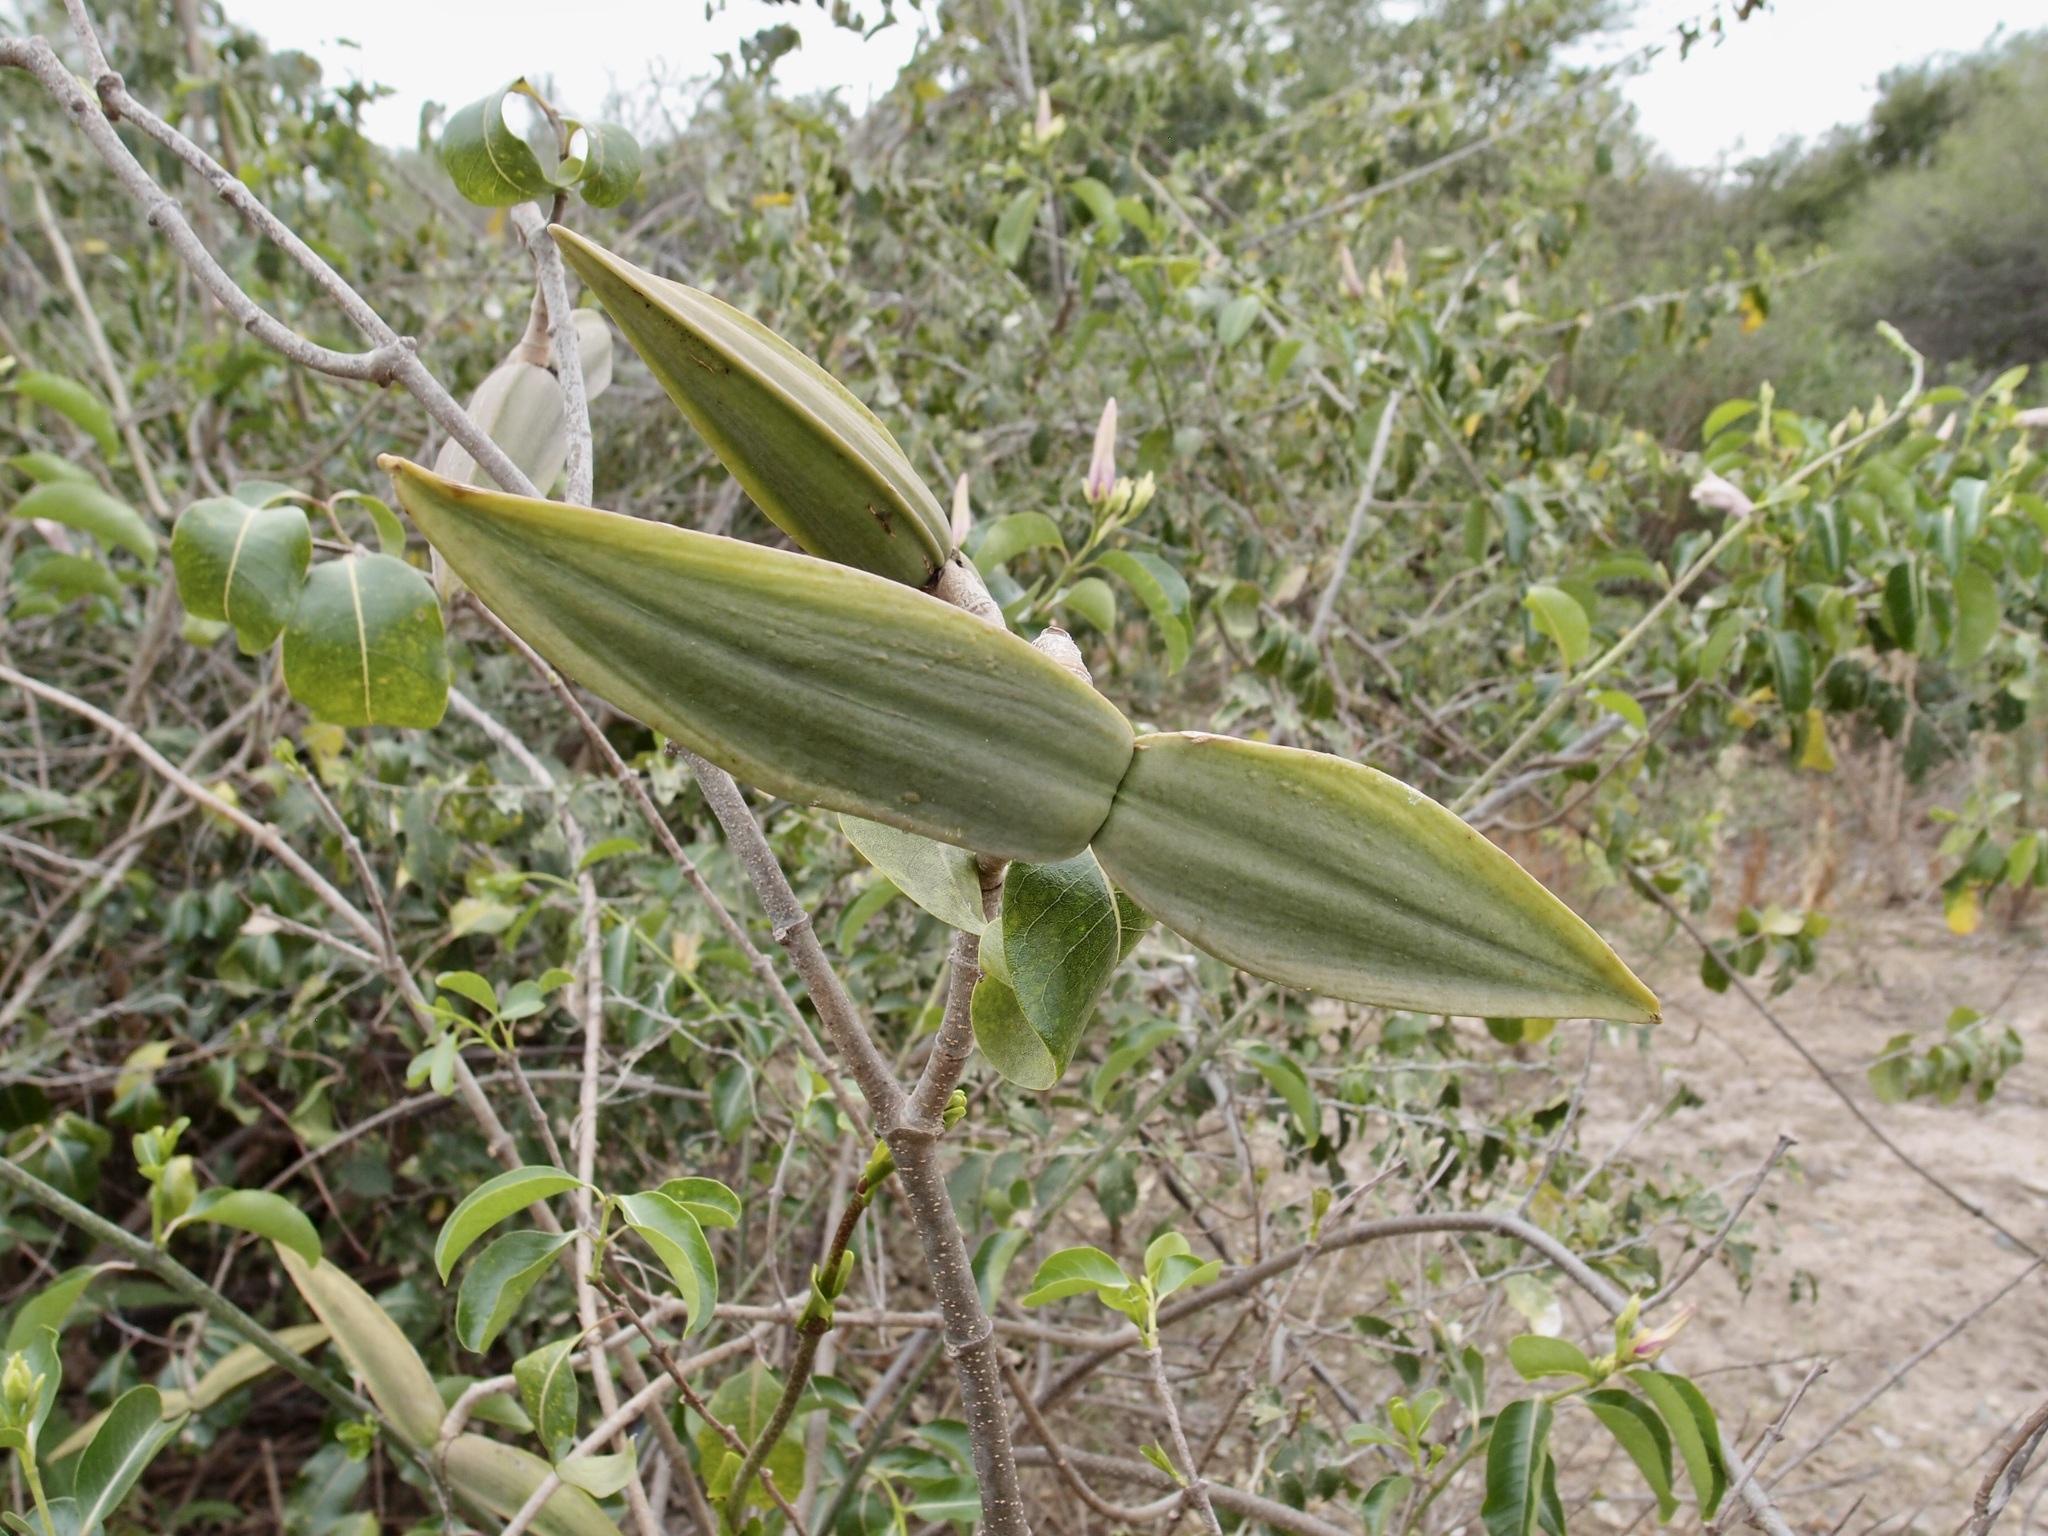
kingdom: Plantae
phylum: Tracheophyta
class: Magnoliopsida
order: Gentianales
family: Apocynaceae
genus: Cryptostegia
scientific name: Cryptostegia grandiflora
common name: Palay rubbervine
